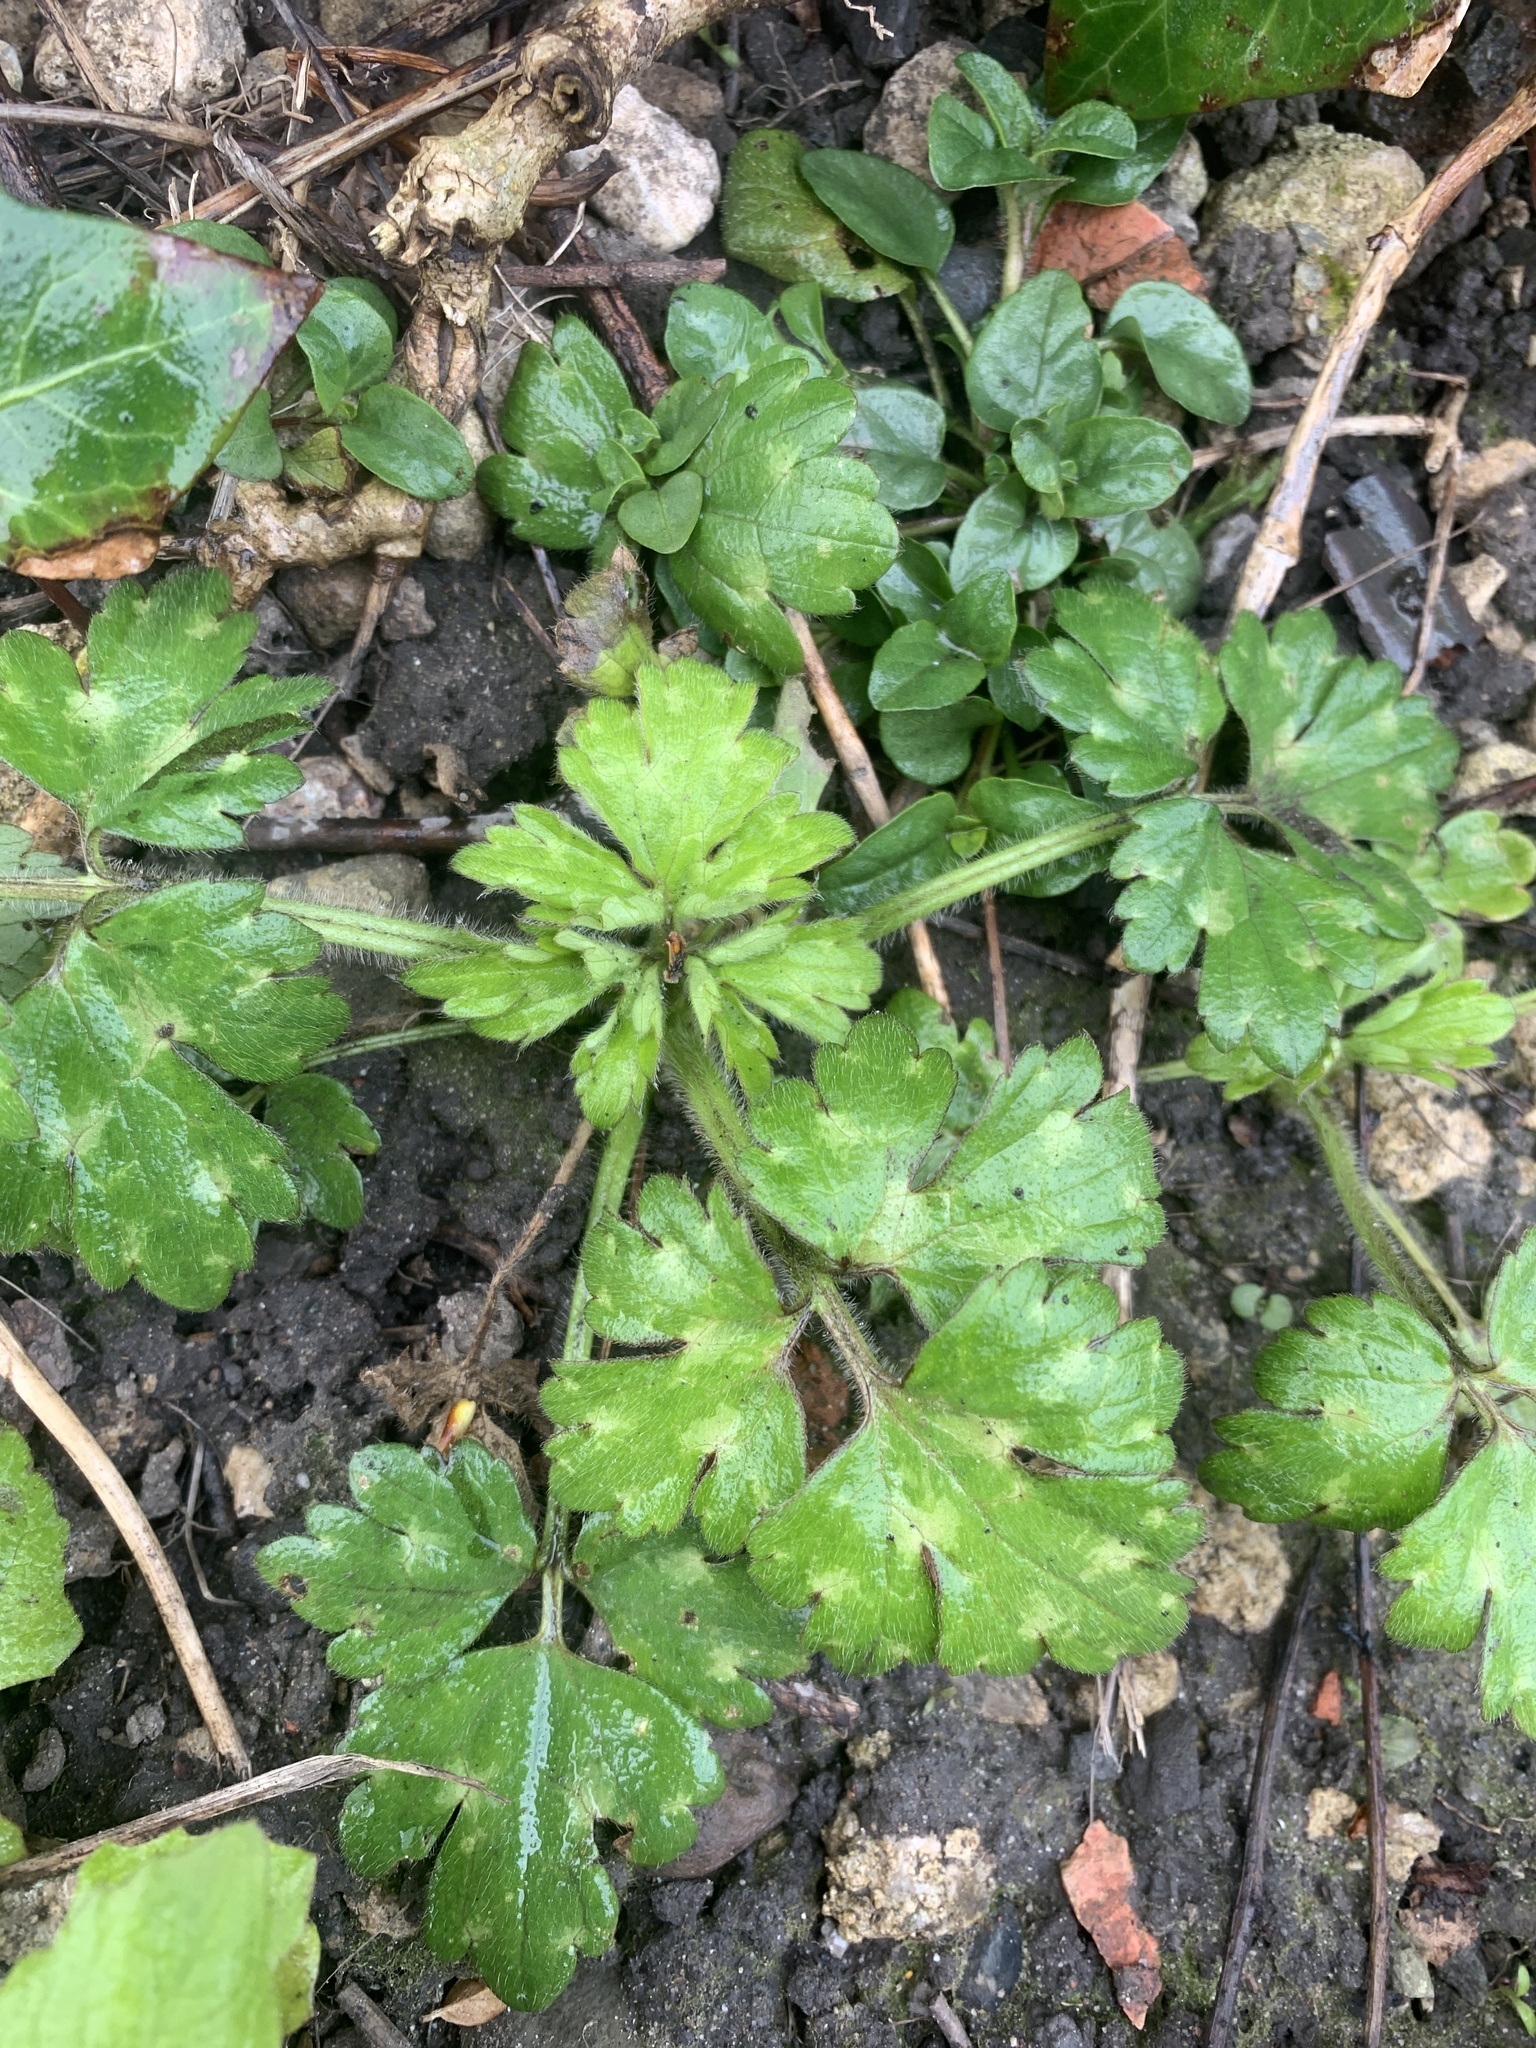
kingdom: Plantae
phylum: Tracheophyta
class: Magnoliopsida
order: Ranunculales
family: Ranunculaceae
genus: Ranunculus
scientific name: Ranunculus repens
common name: Creeping buttercup
